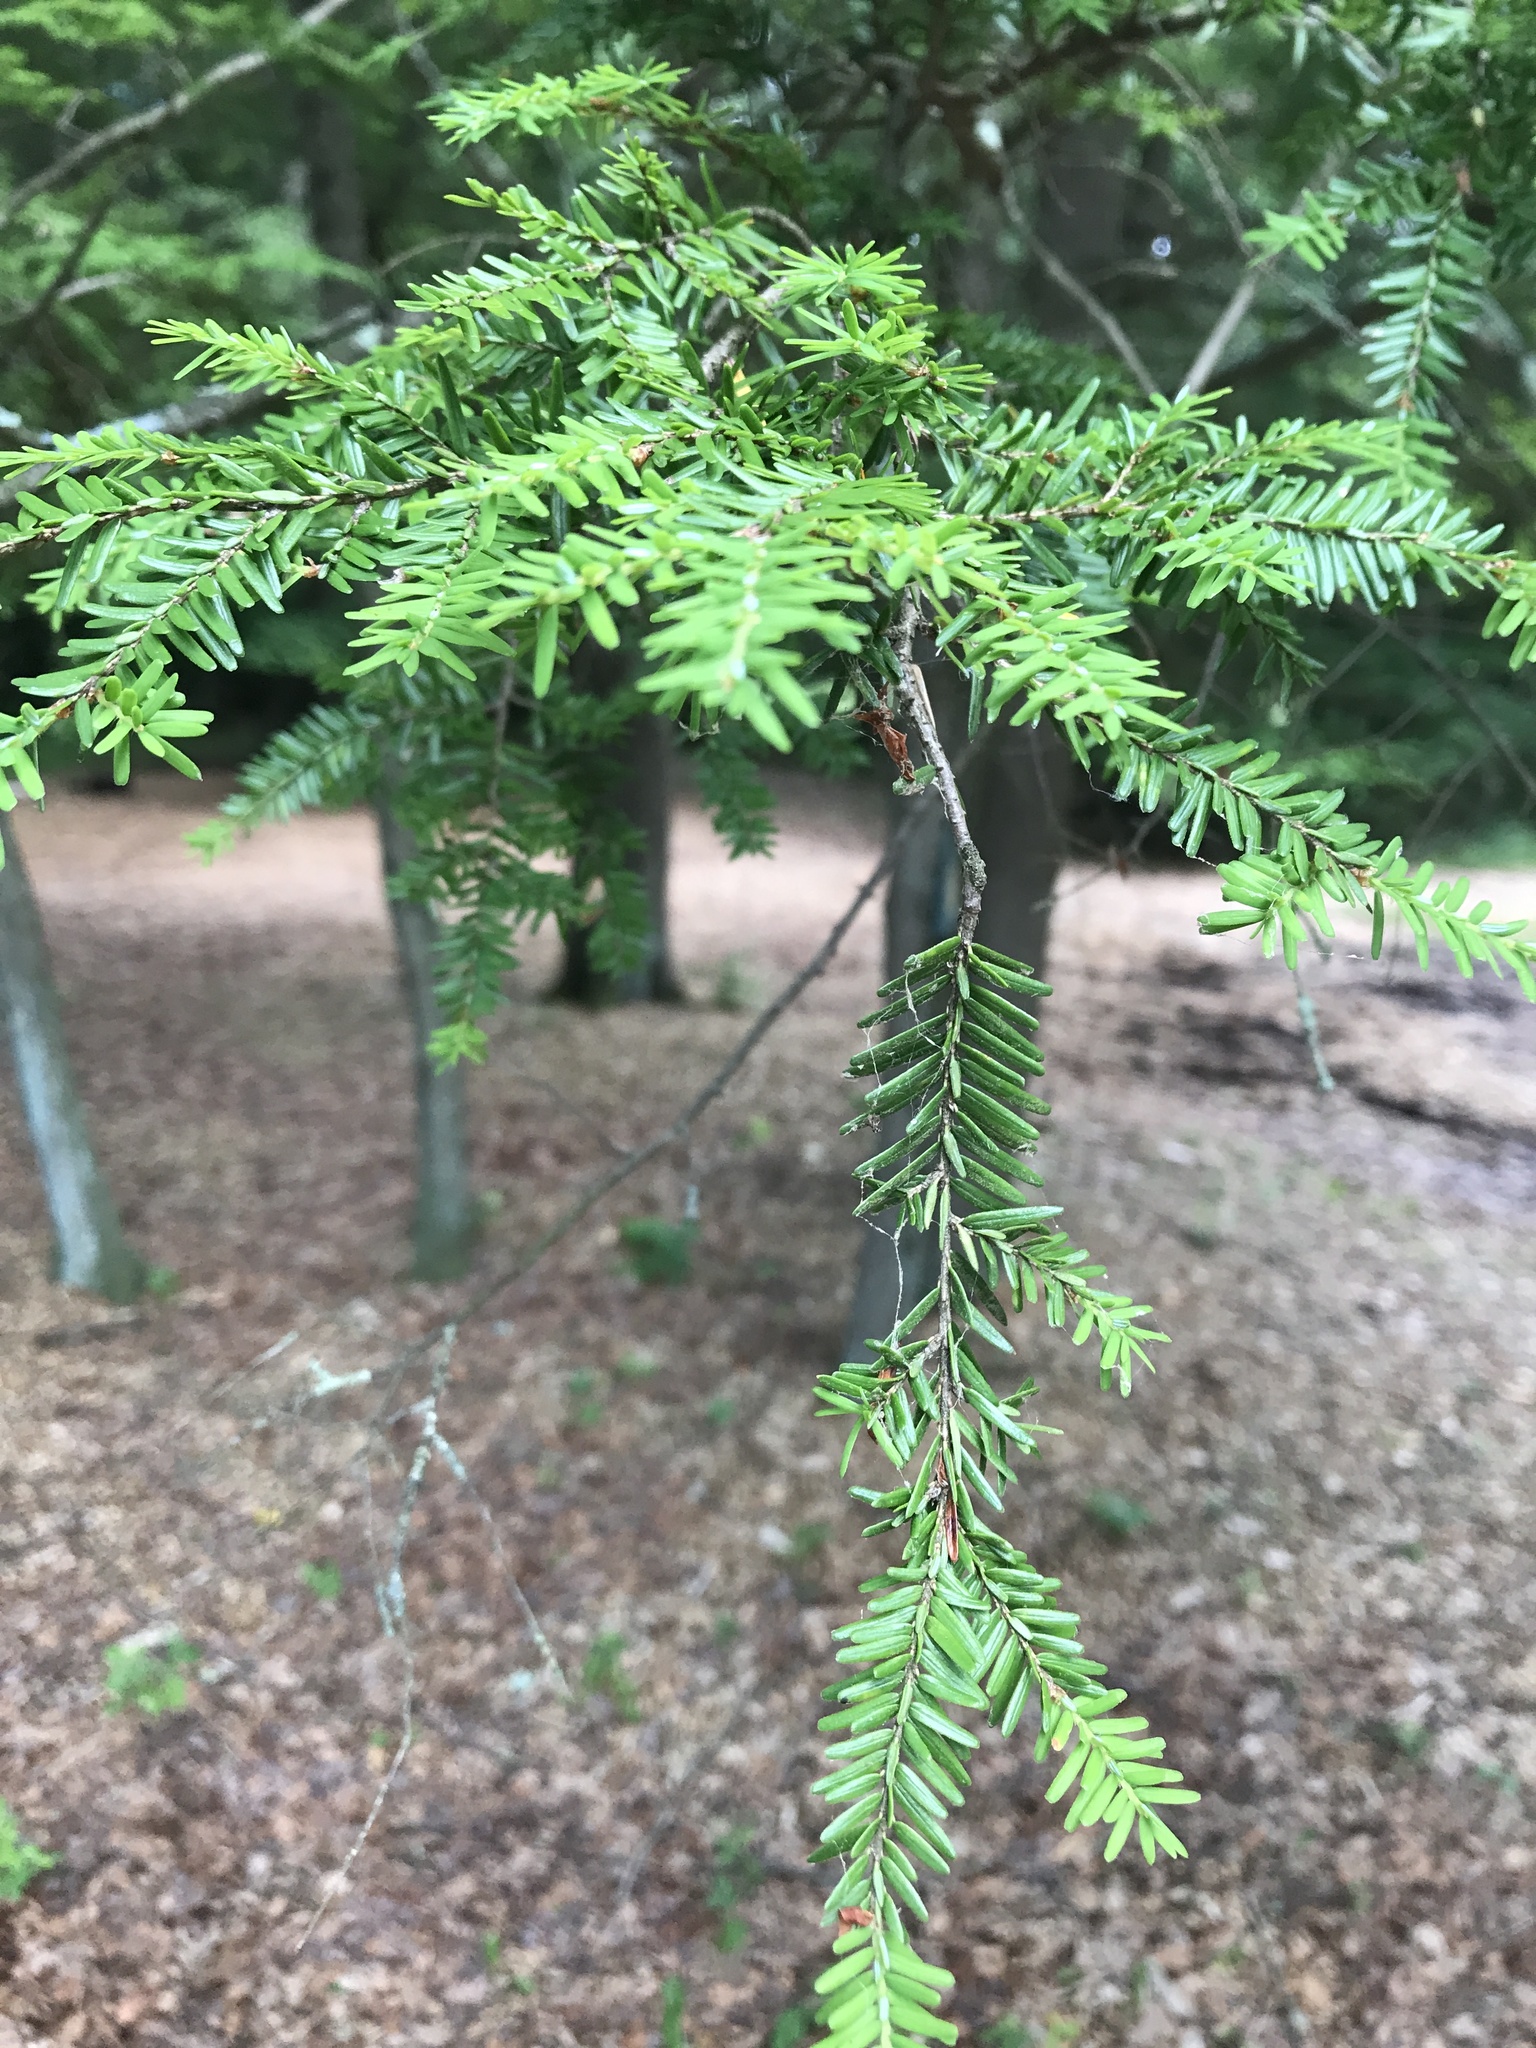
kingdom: Plantae
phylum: Tracheophyta
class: Pinopsida
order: Pinales
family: Pinaceae
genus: Tsuga
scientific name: Tsuga canadensis
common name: Eastern hemlock
